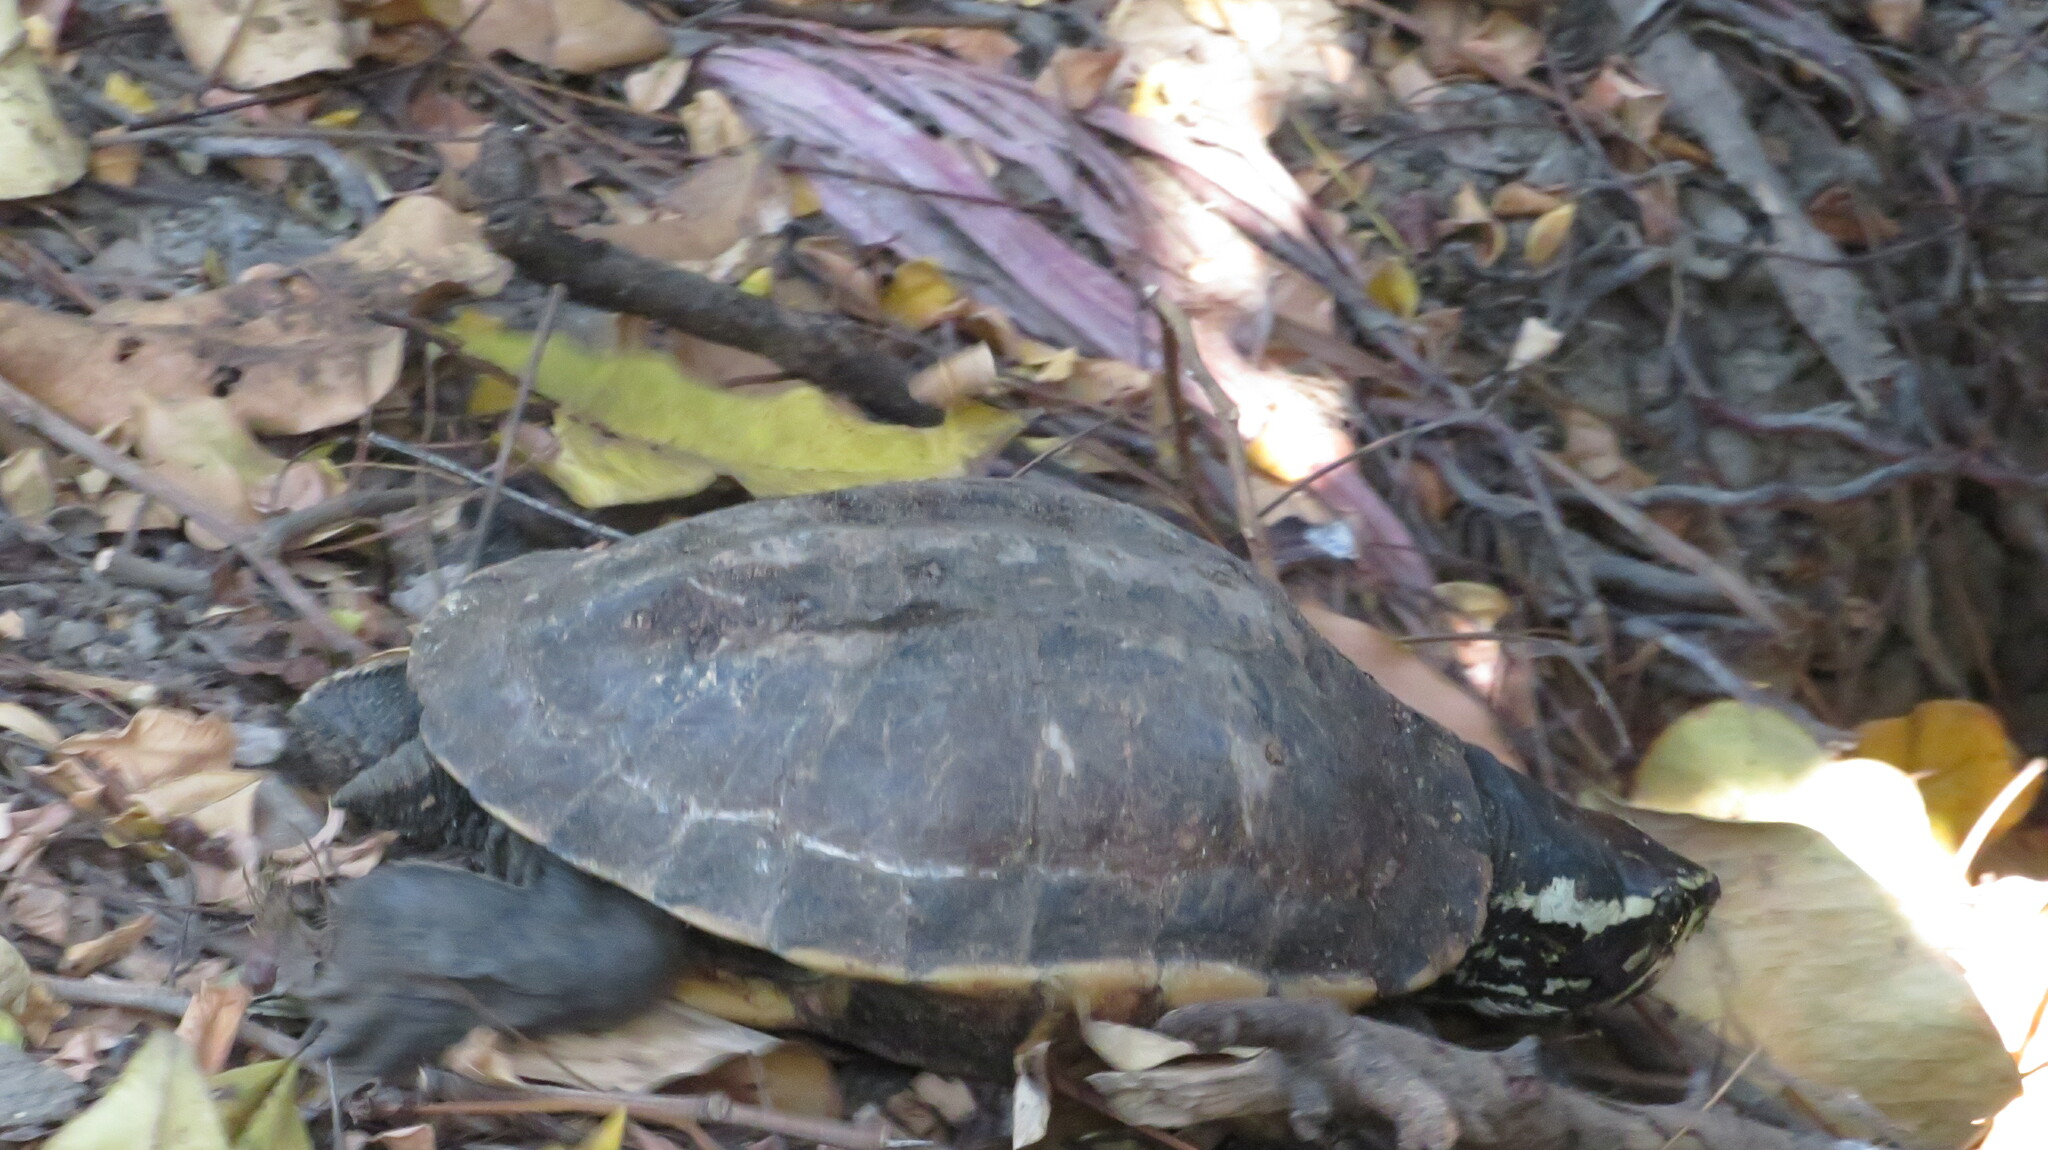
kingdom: Animalia
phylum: Chordata
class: Testudines
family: Geoemydidae
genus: Malayemys
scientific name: Malayemys macrocephala
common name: Malayan snail-eating turtle
